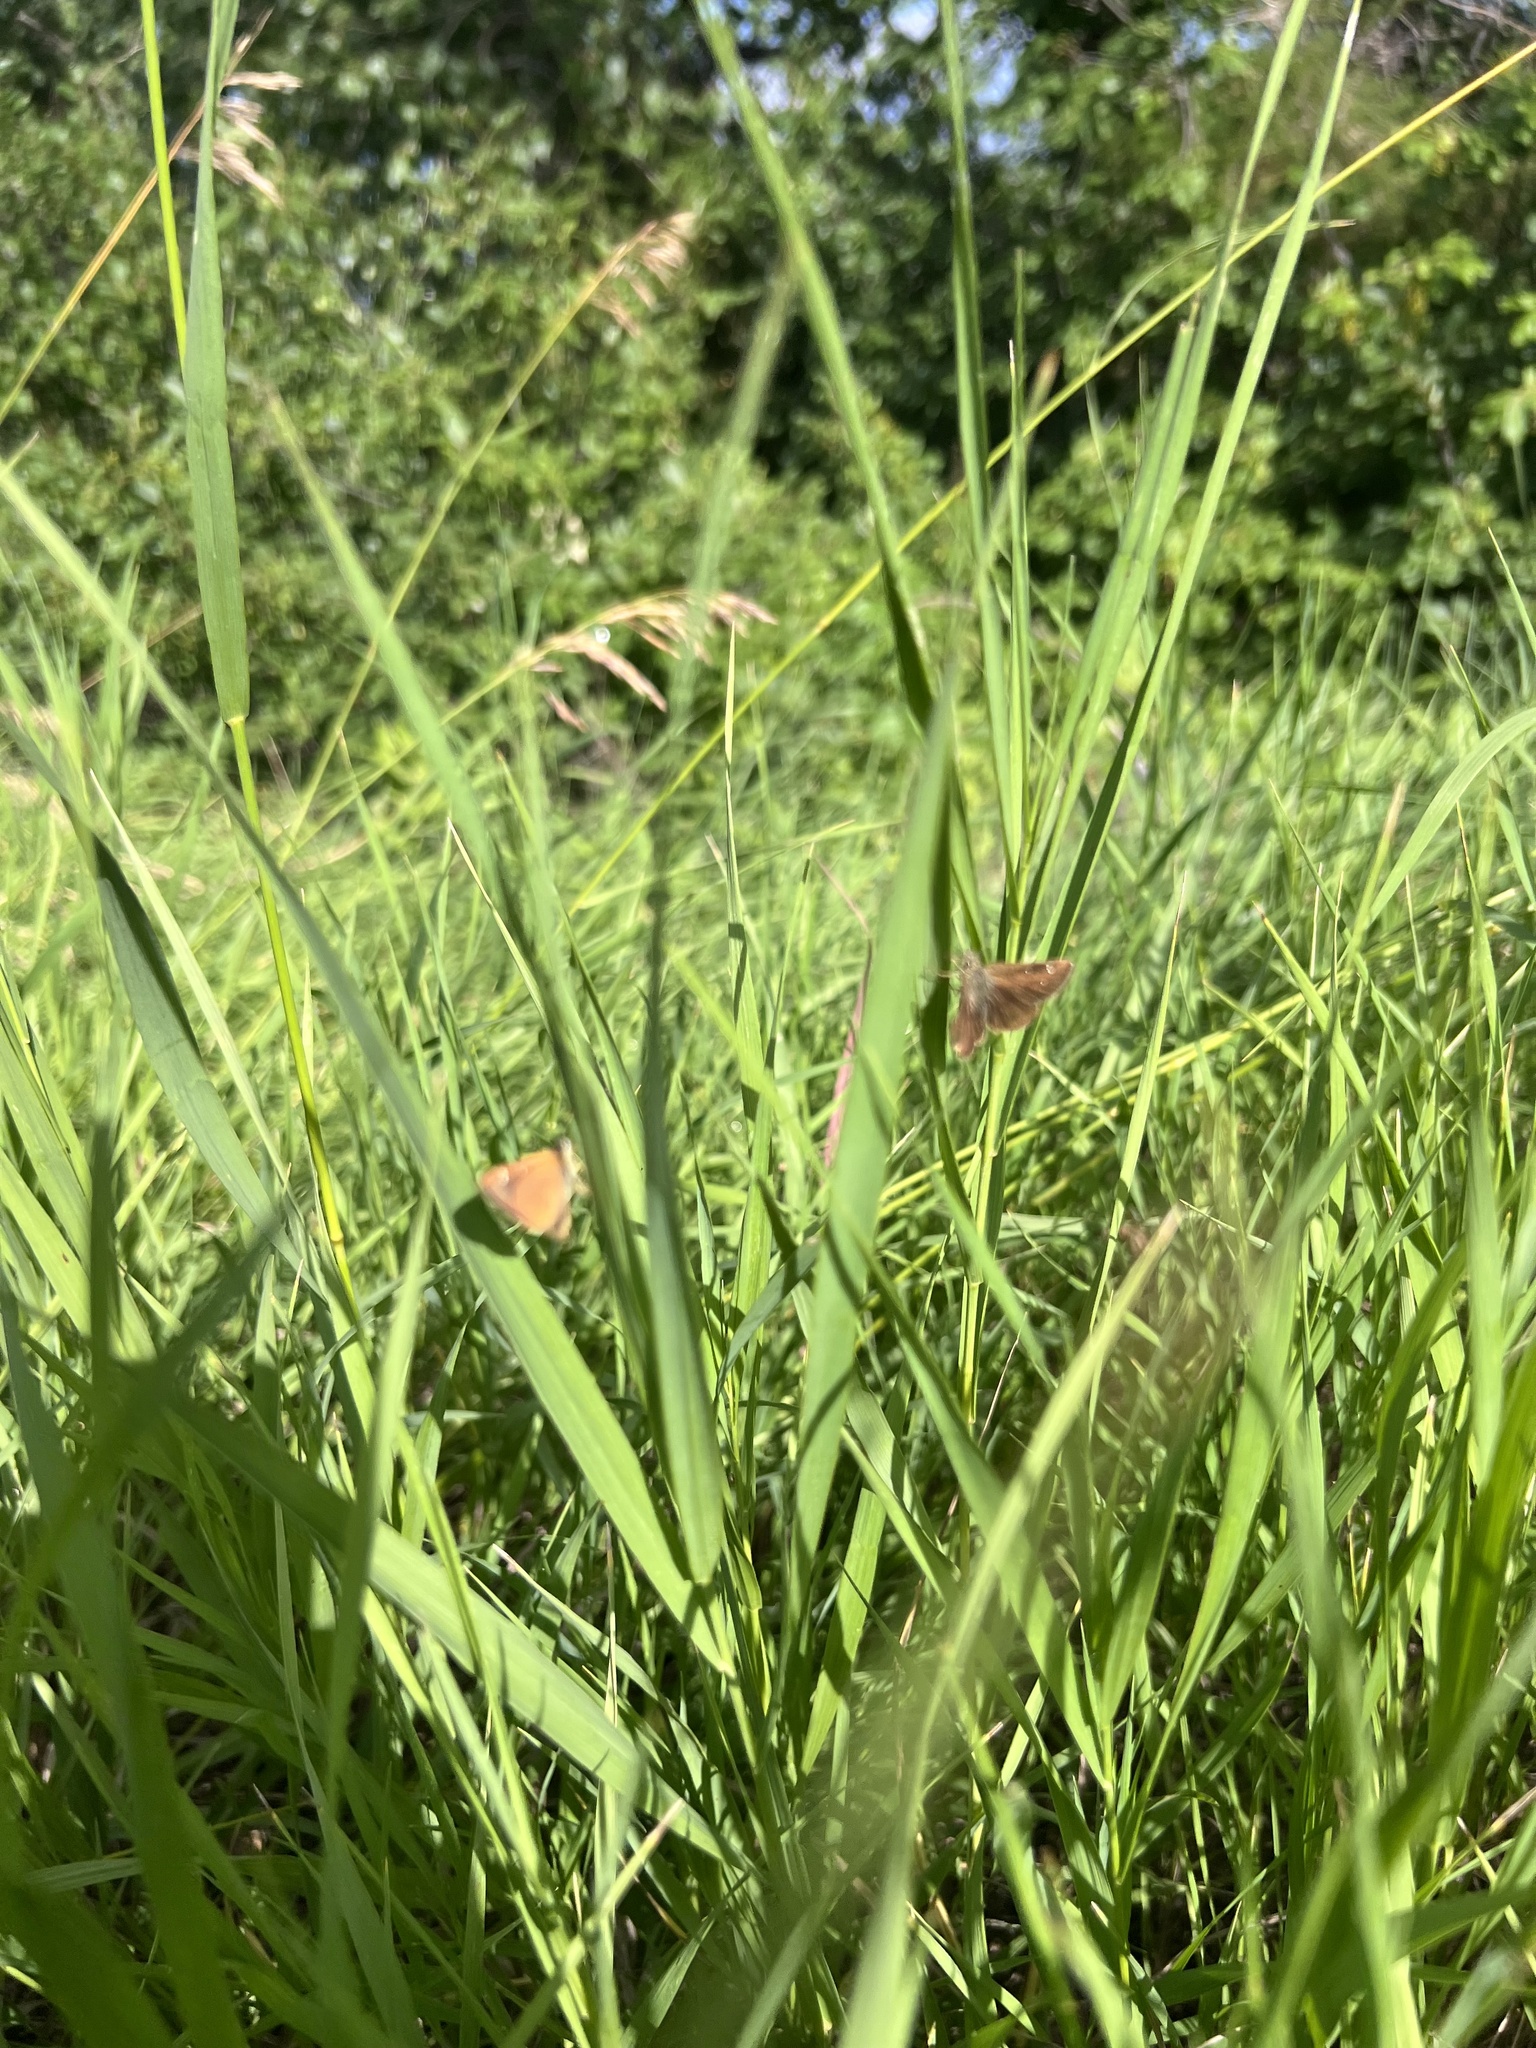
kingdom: Animalia
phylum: Arthropoda
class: Insecta
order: Lepidoptera
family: Hesperiidae
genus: Piruna
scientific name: Piruna pirus
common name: Russet skipperling
